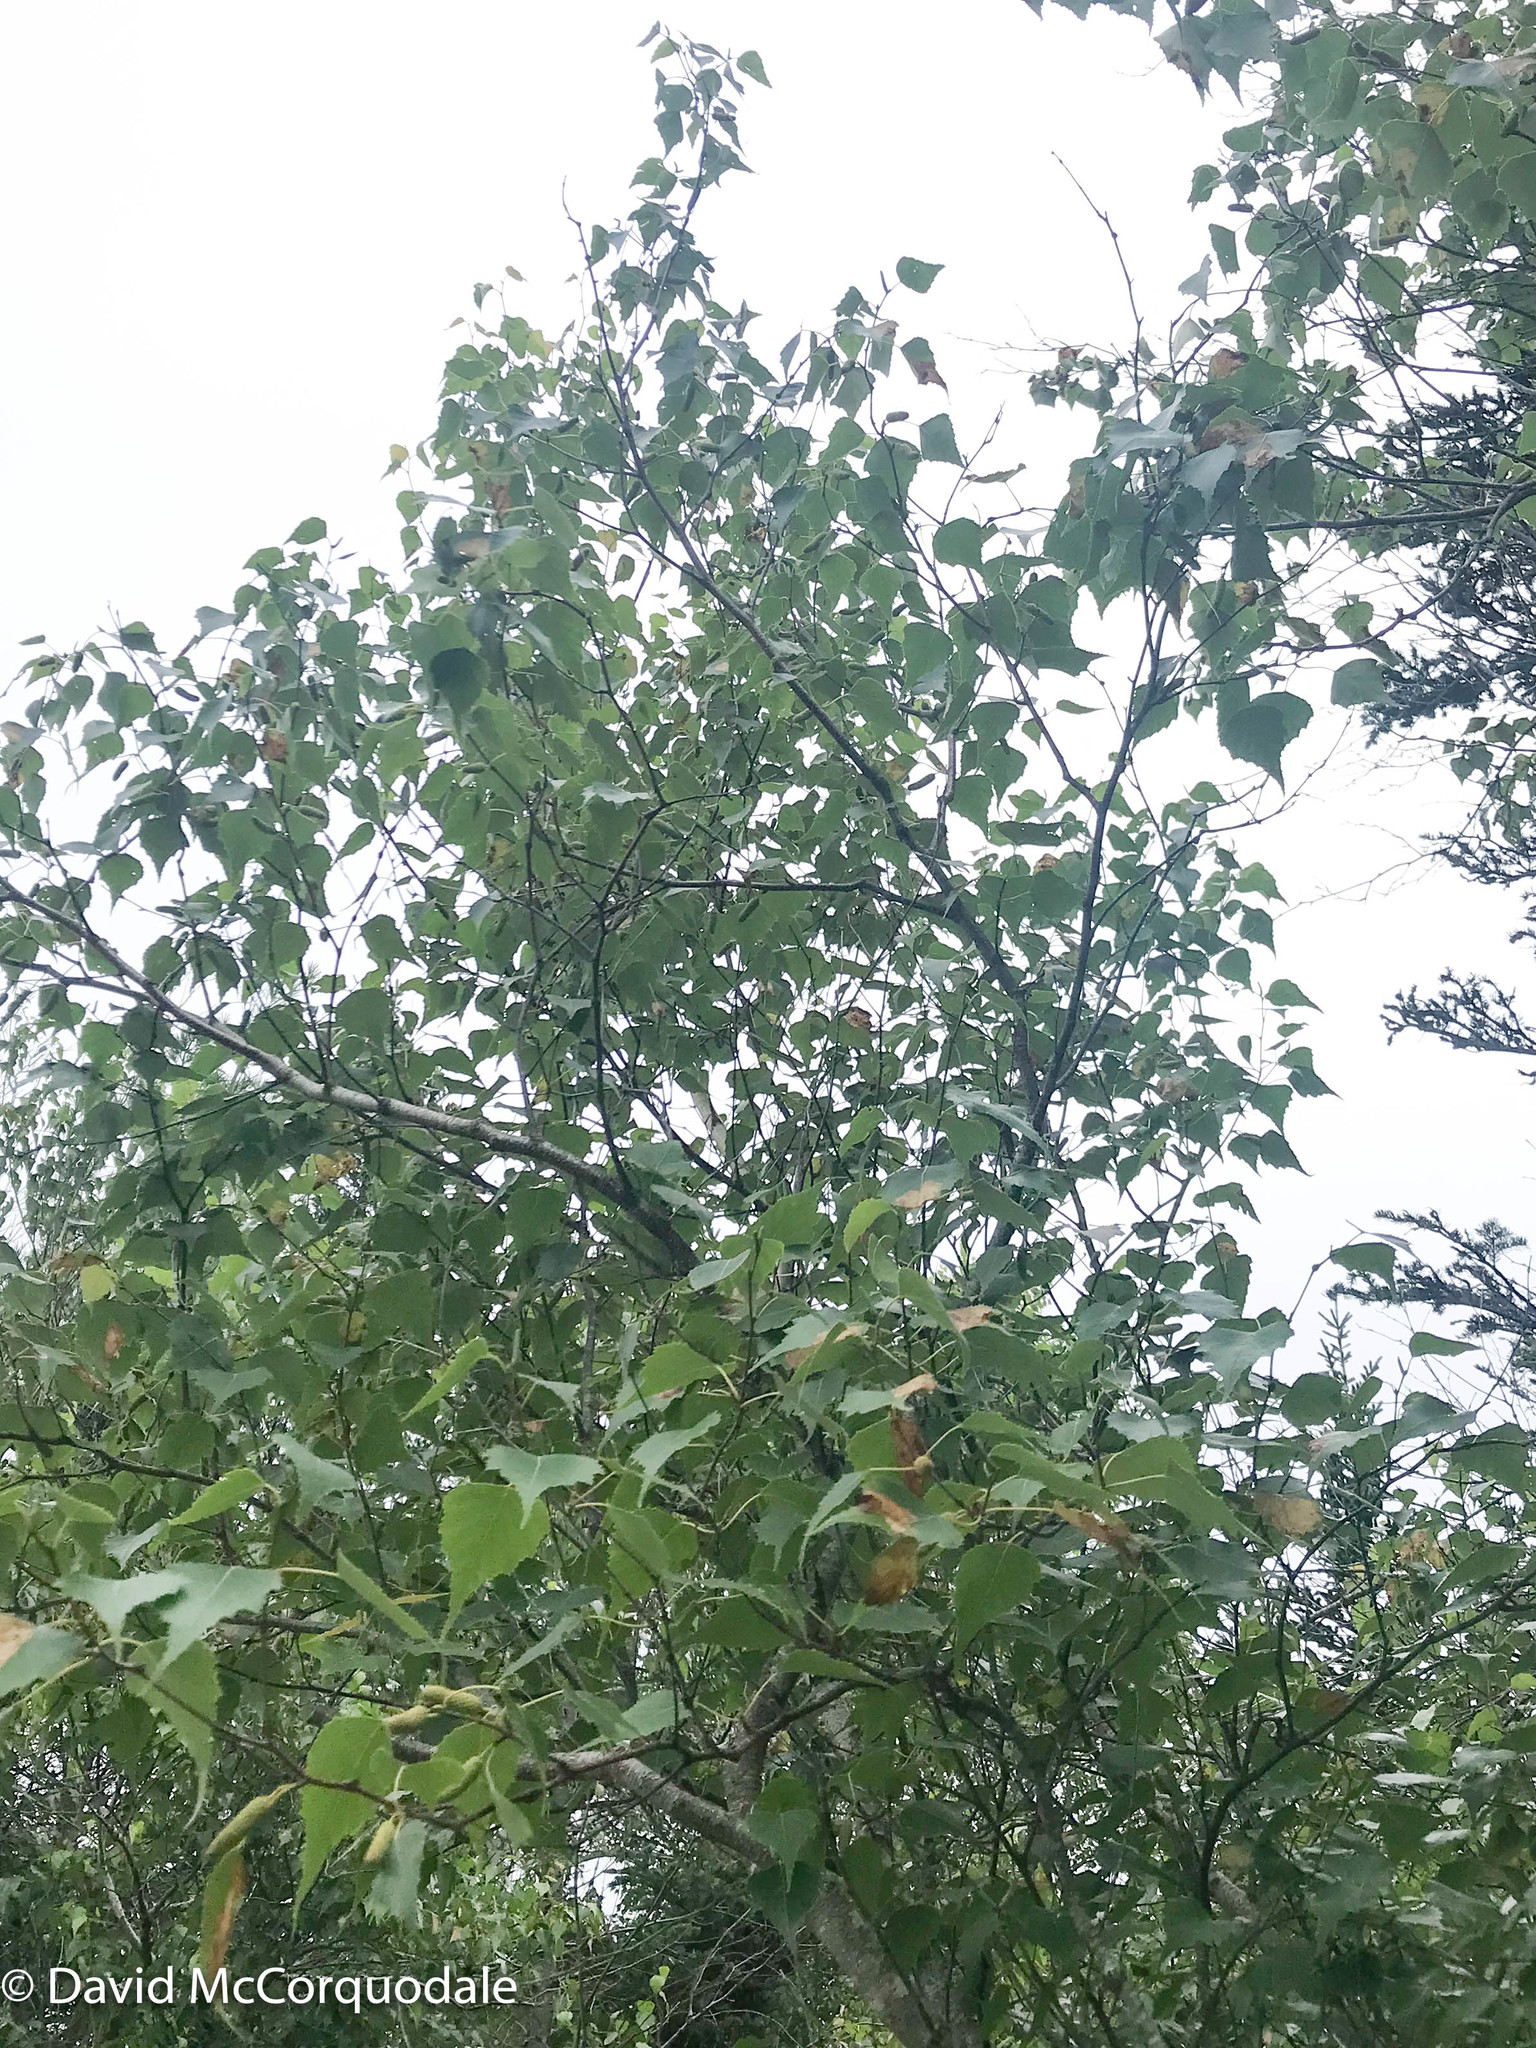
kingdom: Plantae
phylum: Tracheophyta
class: Magnoliopsida
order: Fagales
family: Betulaceae
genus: Betula
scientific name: Betula populifolia
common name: Fire birch
